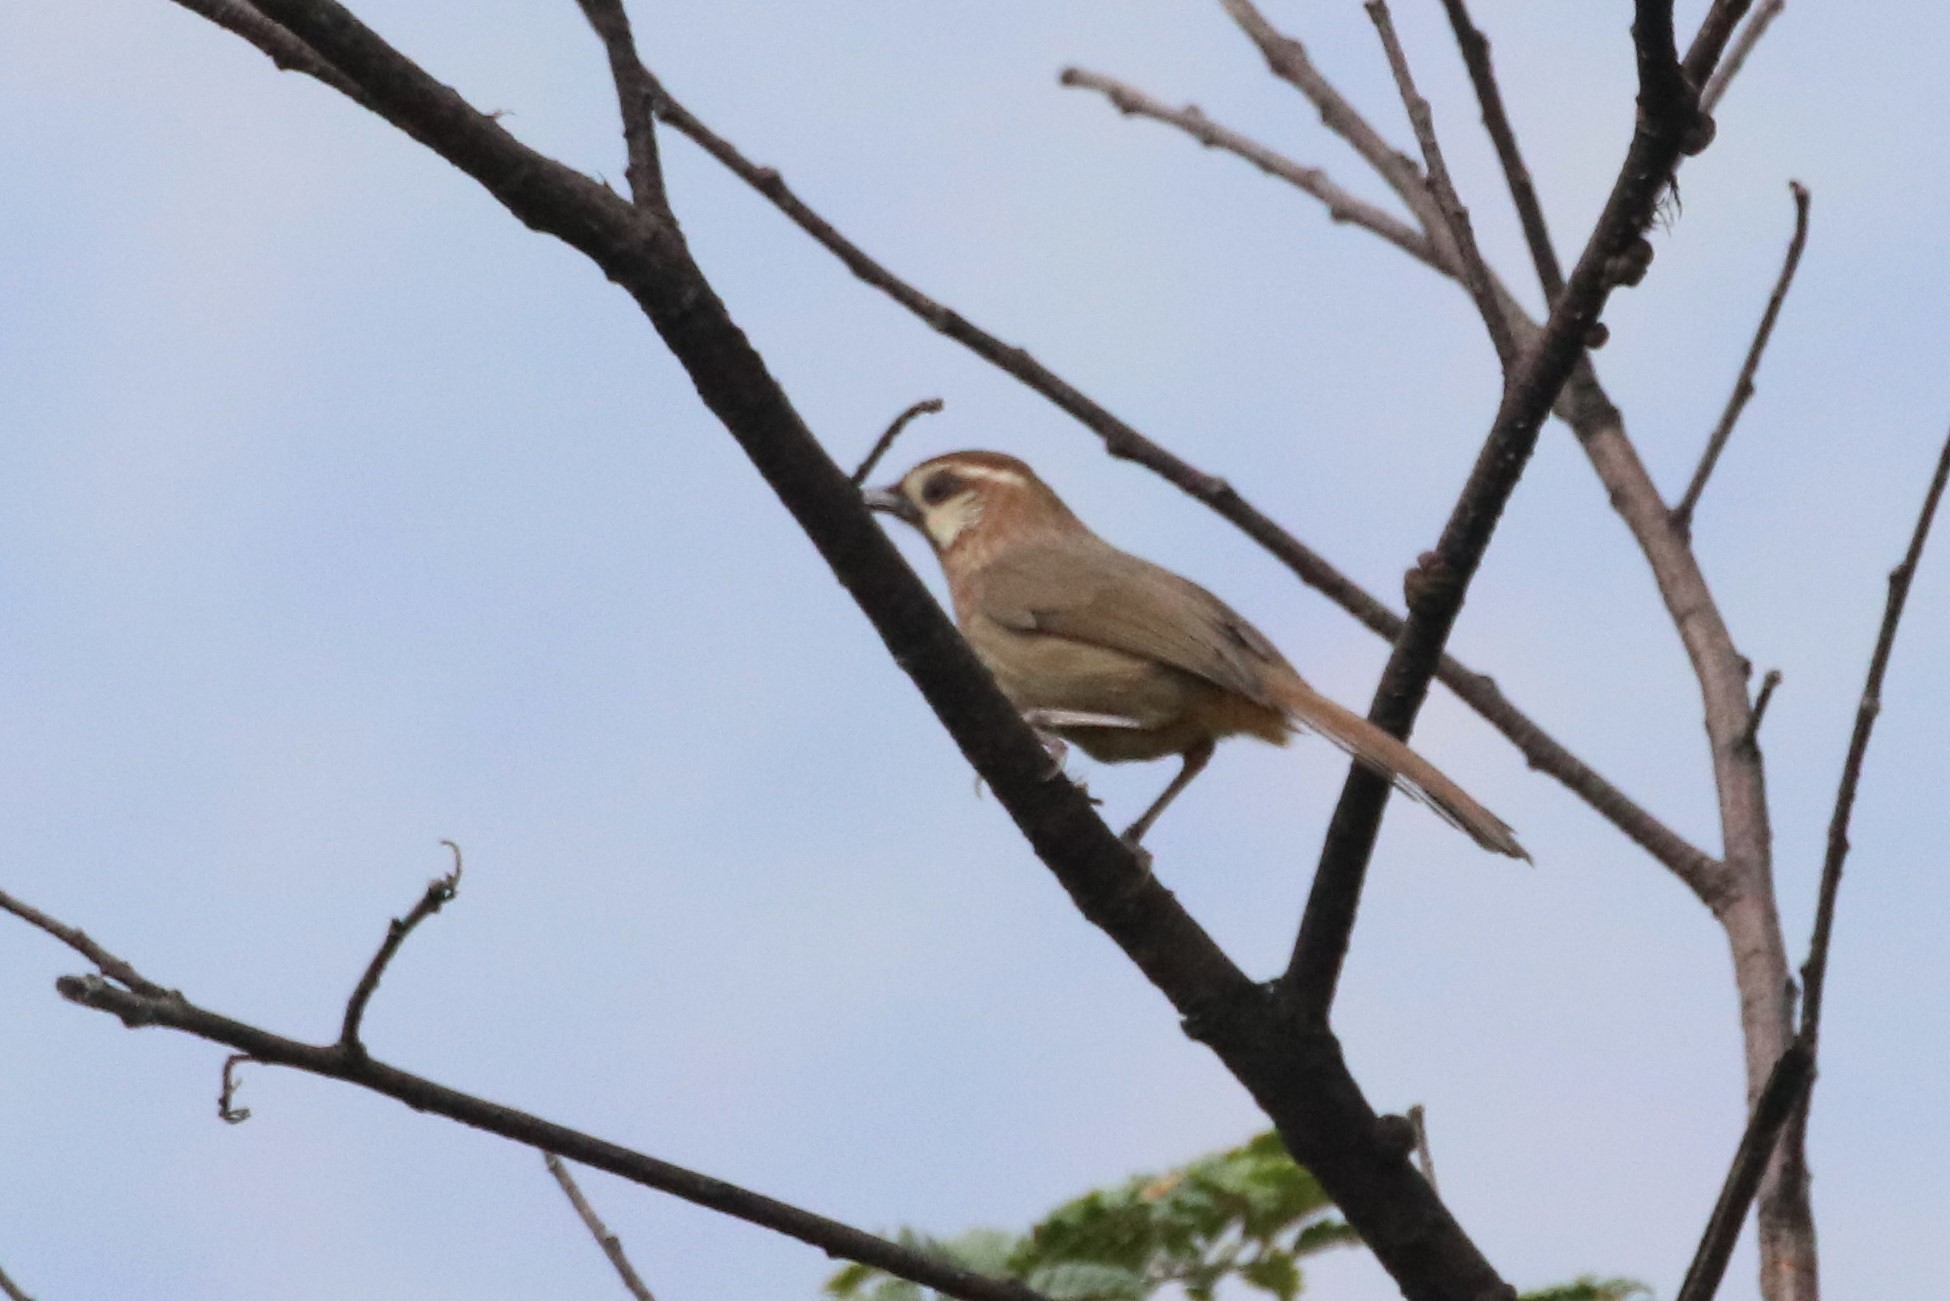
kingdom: Animalia
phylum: Chordata
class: Aves
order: Passeriformes
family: Leiothrichidae
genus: Pterorhinus
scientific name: Pterorhinus sannio
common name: White-browed laughingthrush
